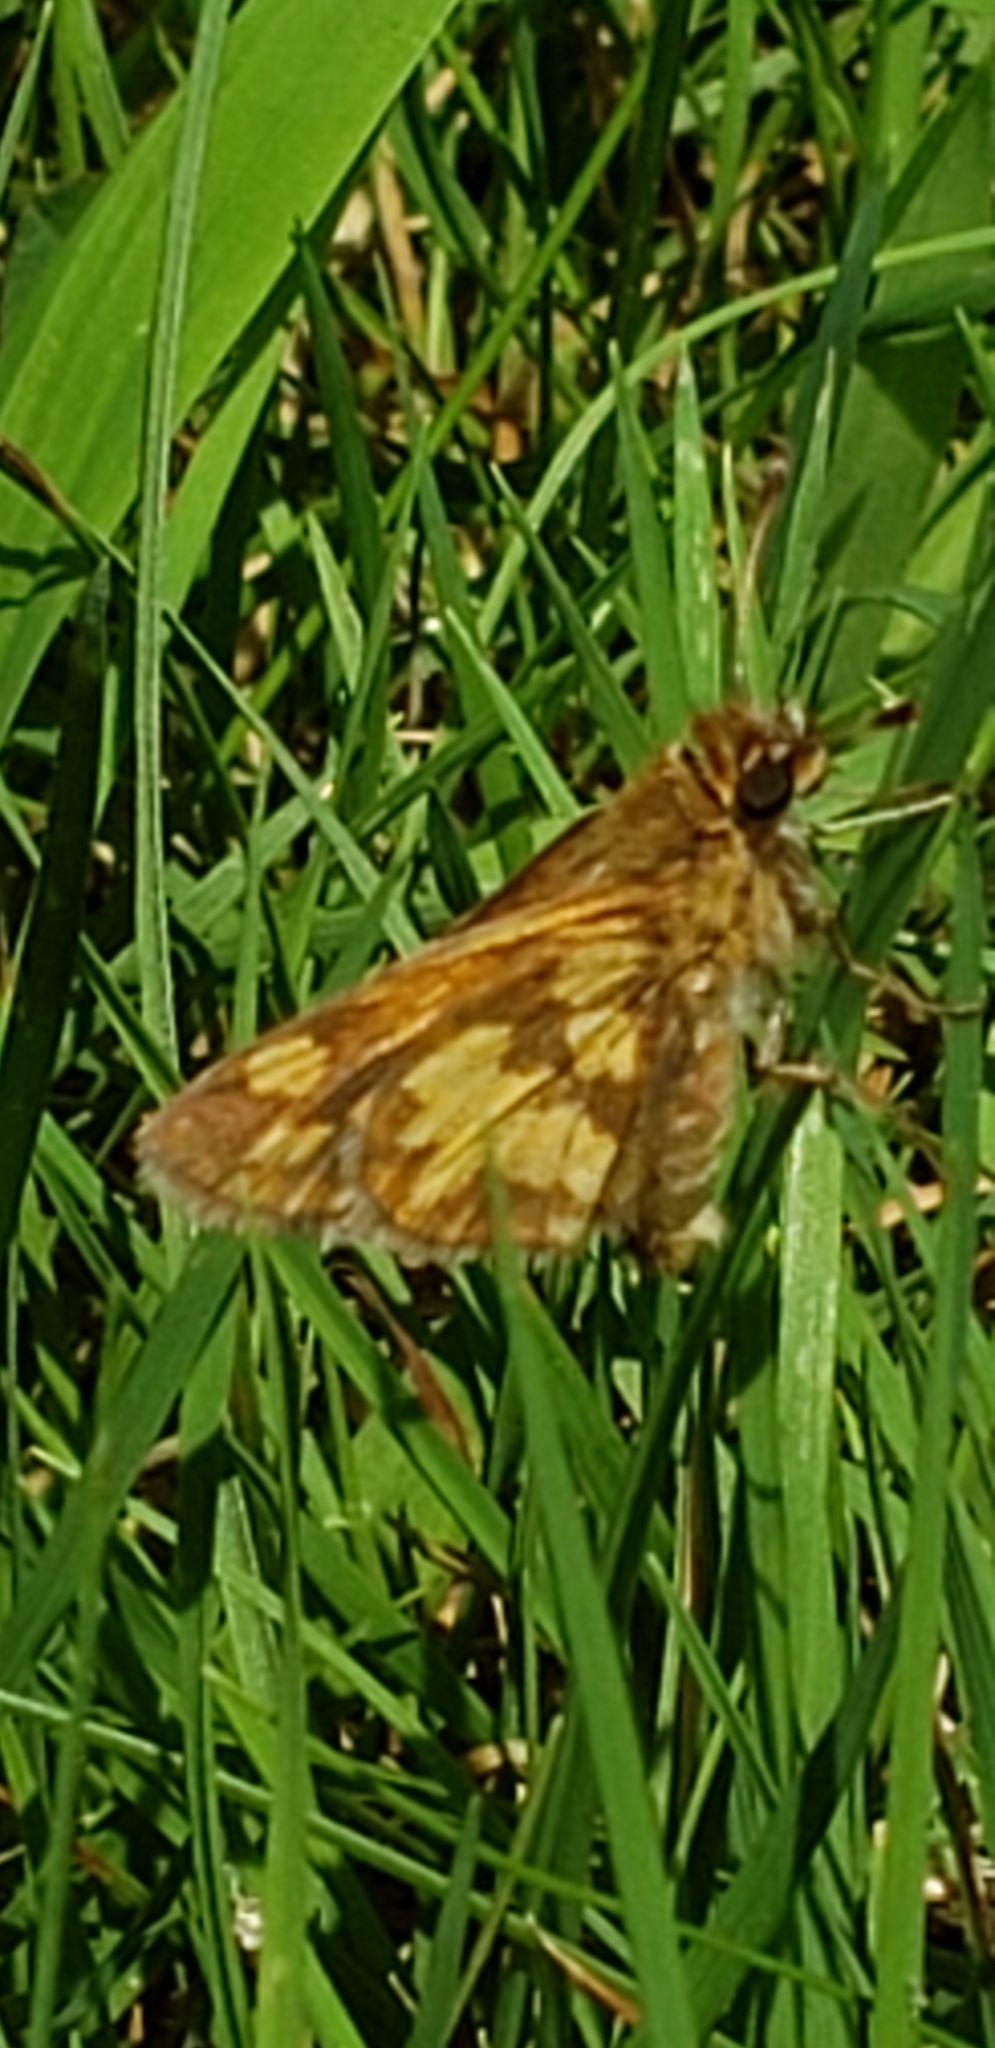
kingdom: Animalia
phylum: Arthropoda
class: Insecta
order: Lepidoptera
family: Hesperiidae
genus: Polites
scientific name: Polites coras
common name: Peck's skipper
